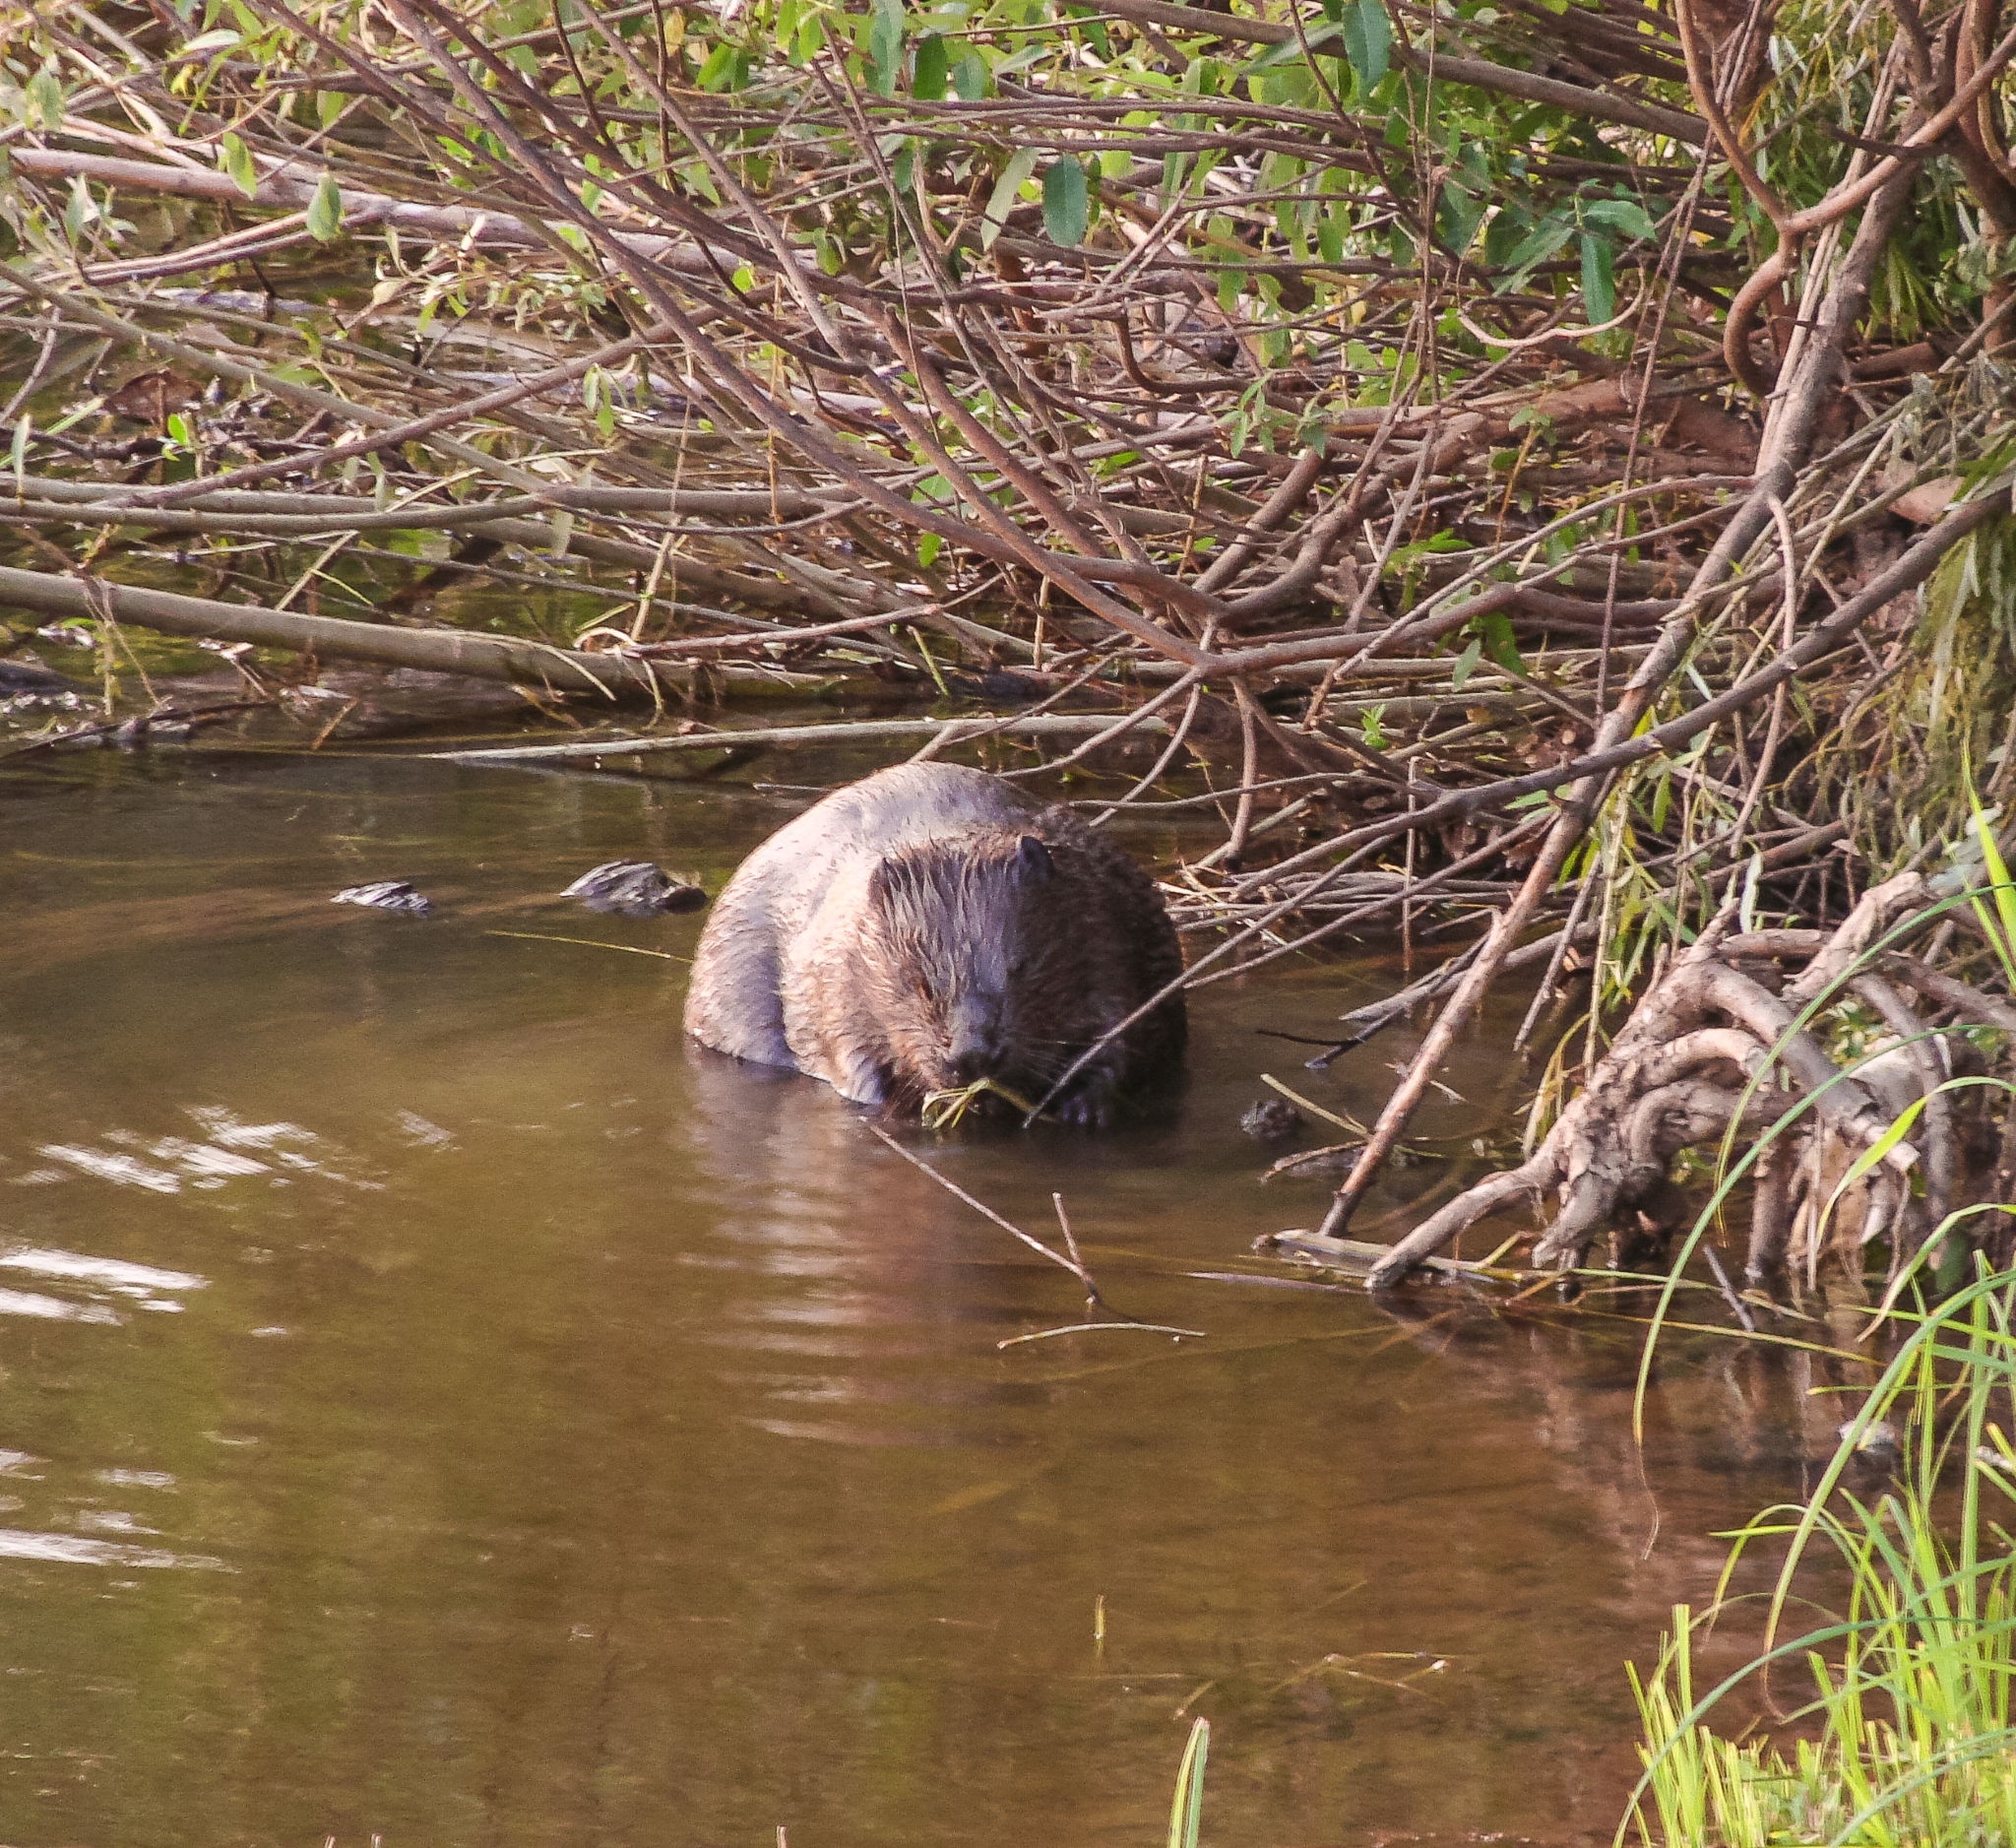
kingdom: Animalia
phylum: Chordata
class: Mammalia
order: Rodentia
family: Castoridae
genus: Castor
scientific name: Castor fiber
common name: Eurasian beaver
